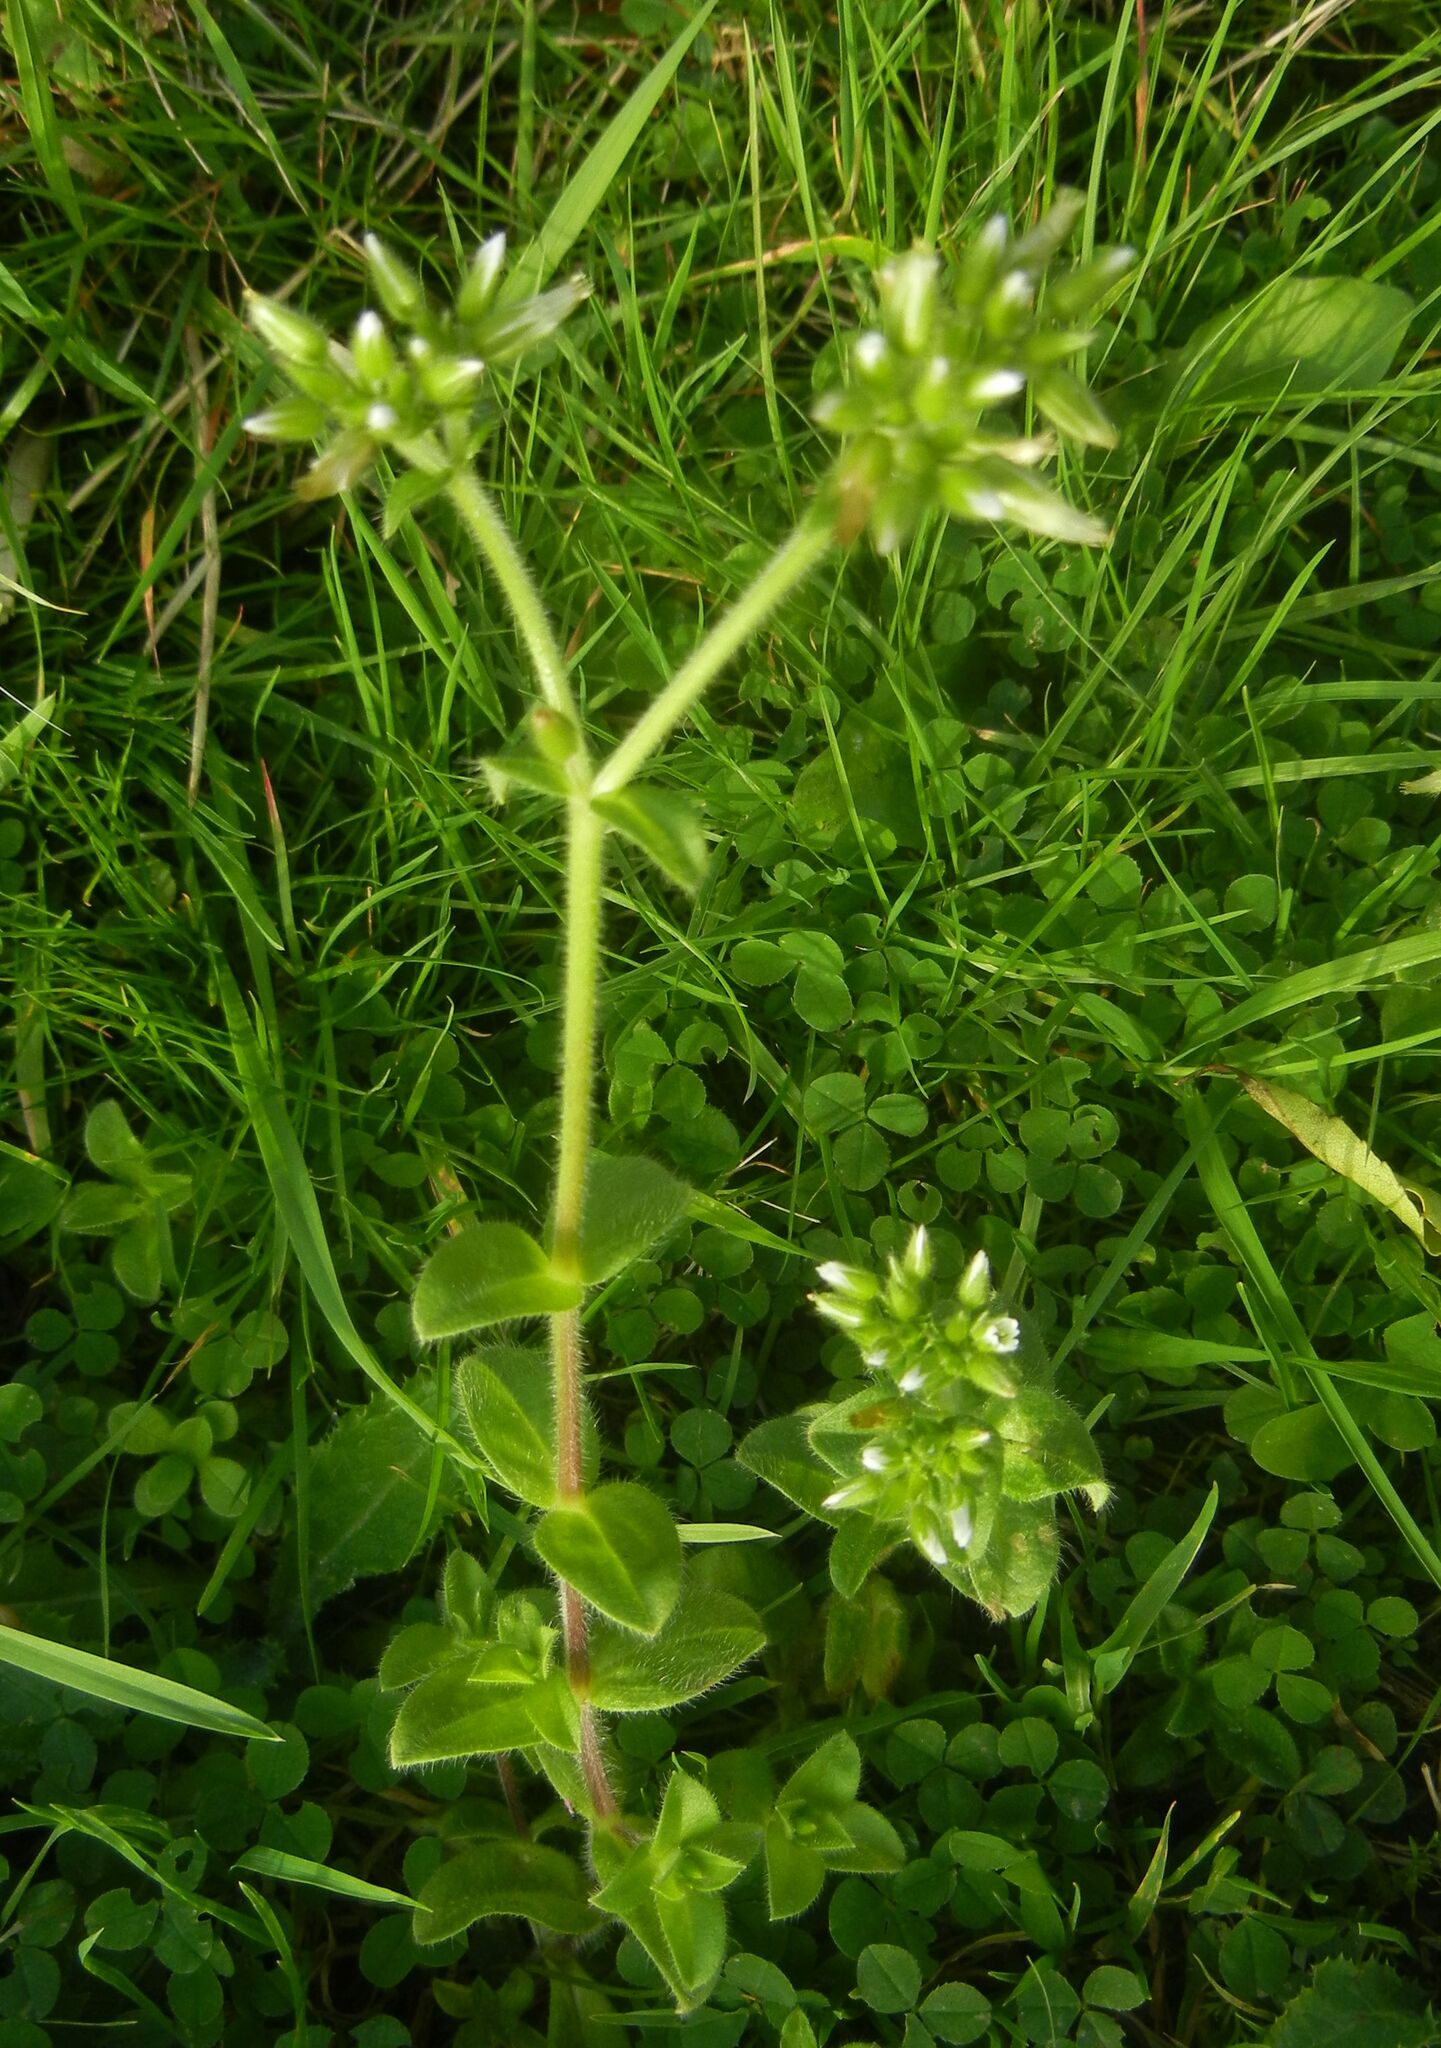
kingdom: Plantae
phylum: Tracheophyta
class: Magnoliopsida
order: Caryophyllales
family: Caryophyllaceae
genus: Cerastium
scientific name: Cerastium glomeratum
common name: Sticky chickweed
